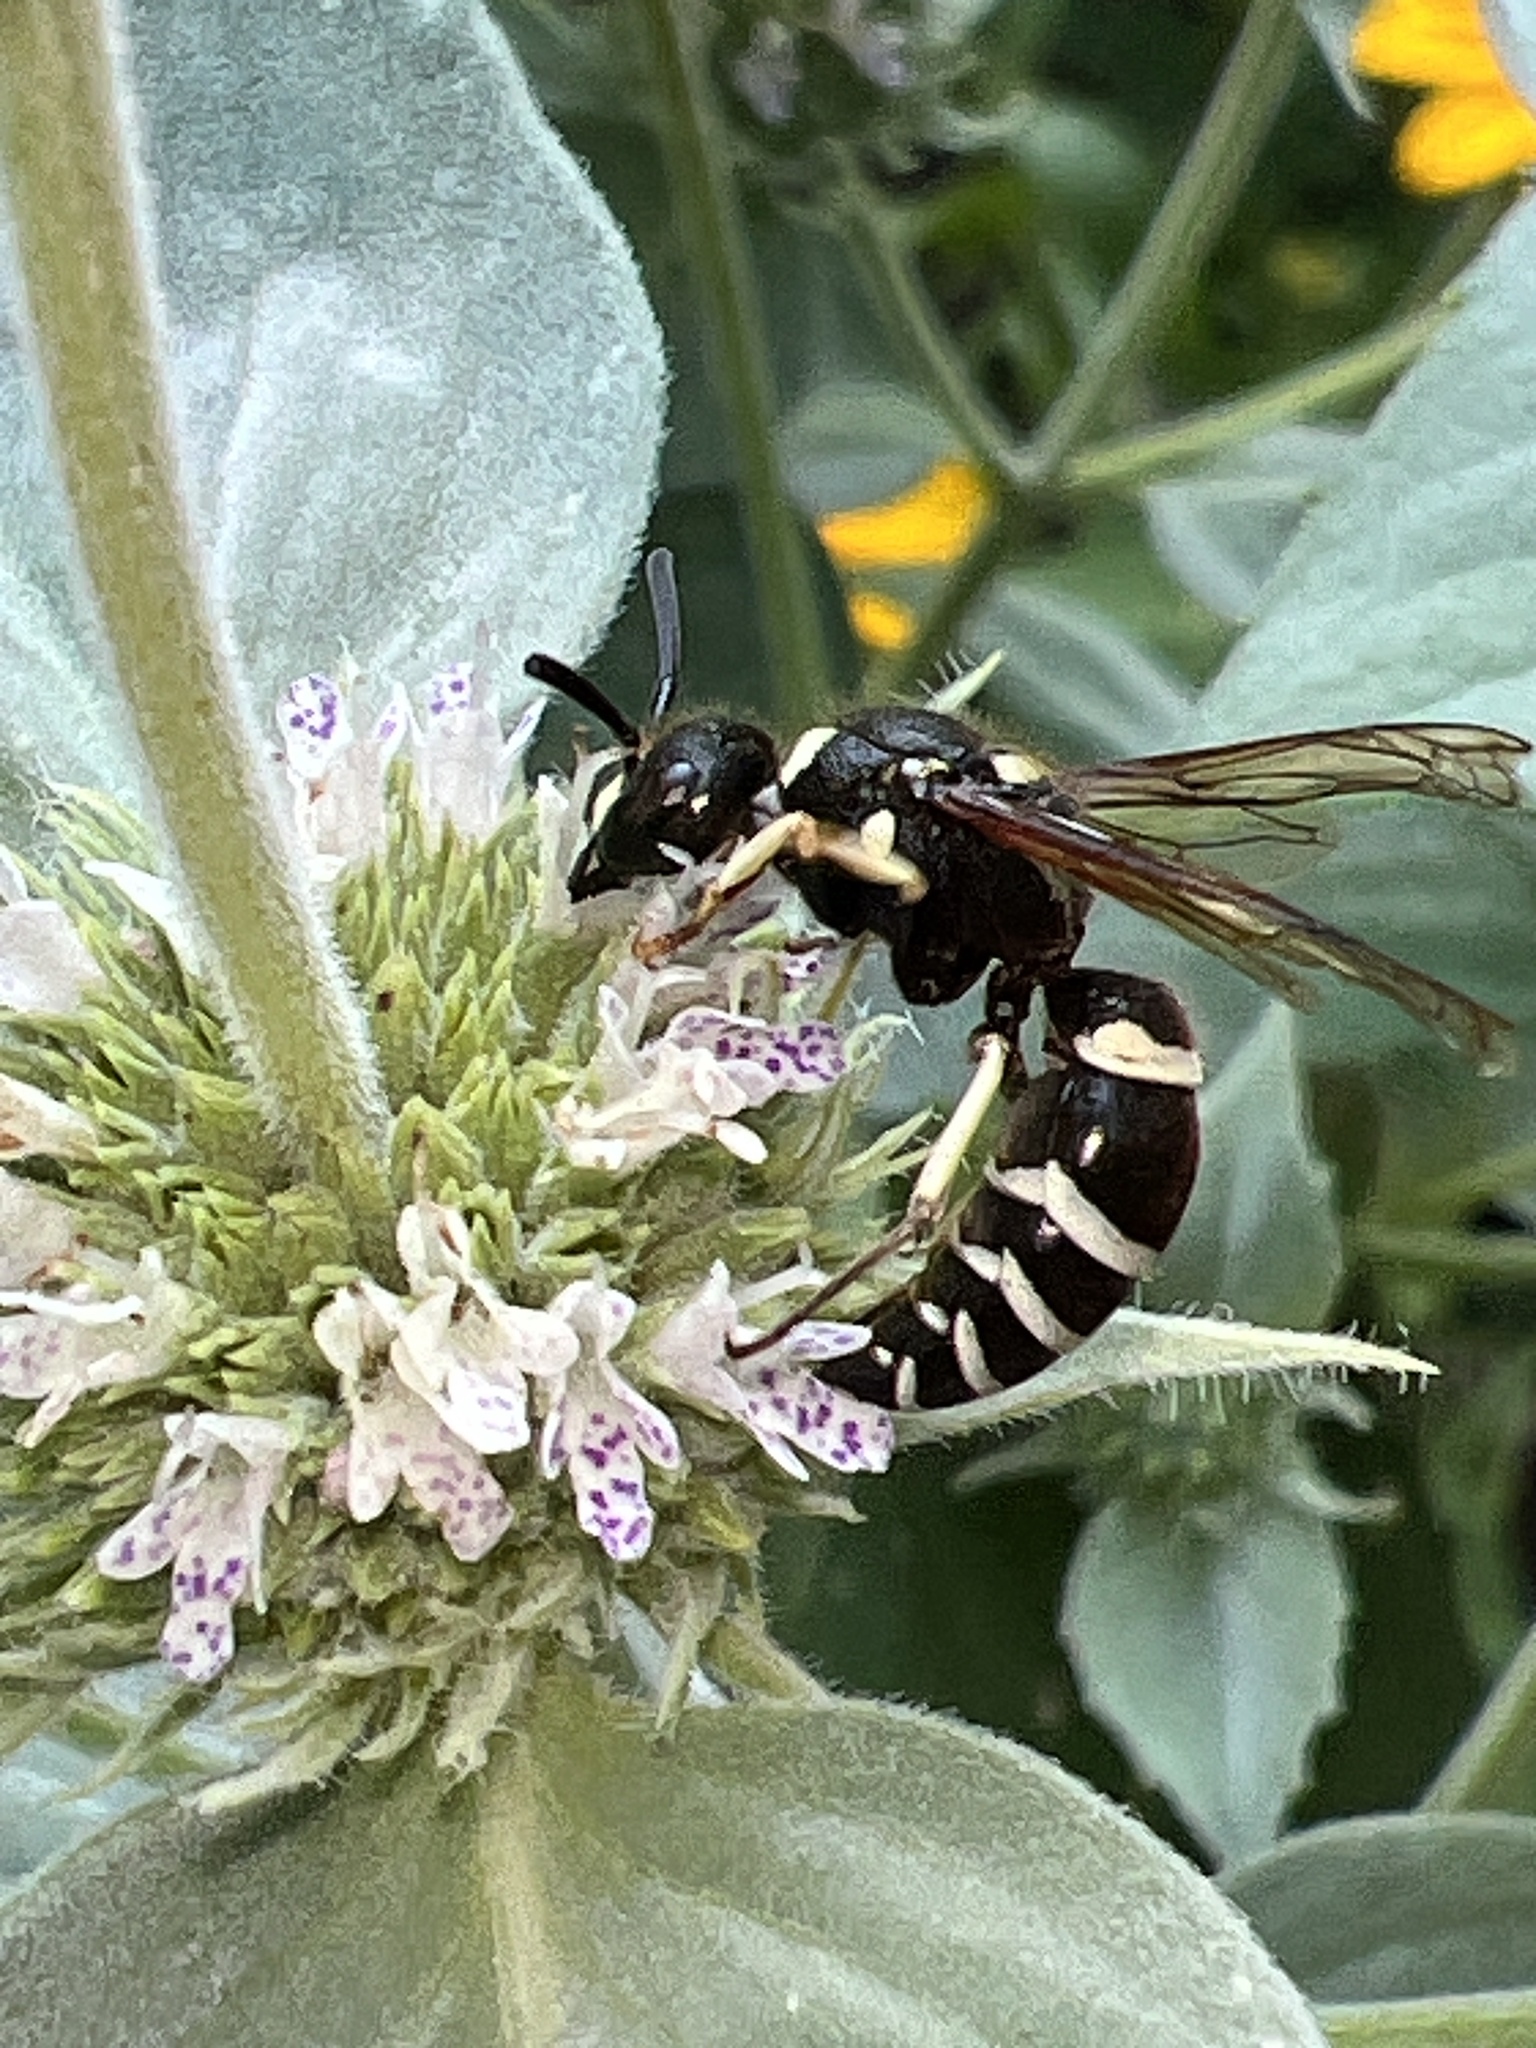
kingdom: Animalia
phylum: Arthropoda
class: Insecta
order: Hymenoptera
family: Vespidae
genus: Ancistrocerus
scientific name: Ancistrocerus waldenii
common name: Walden’s potter wasp
